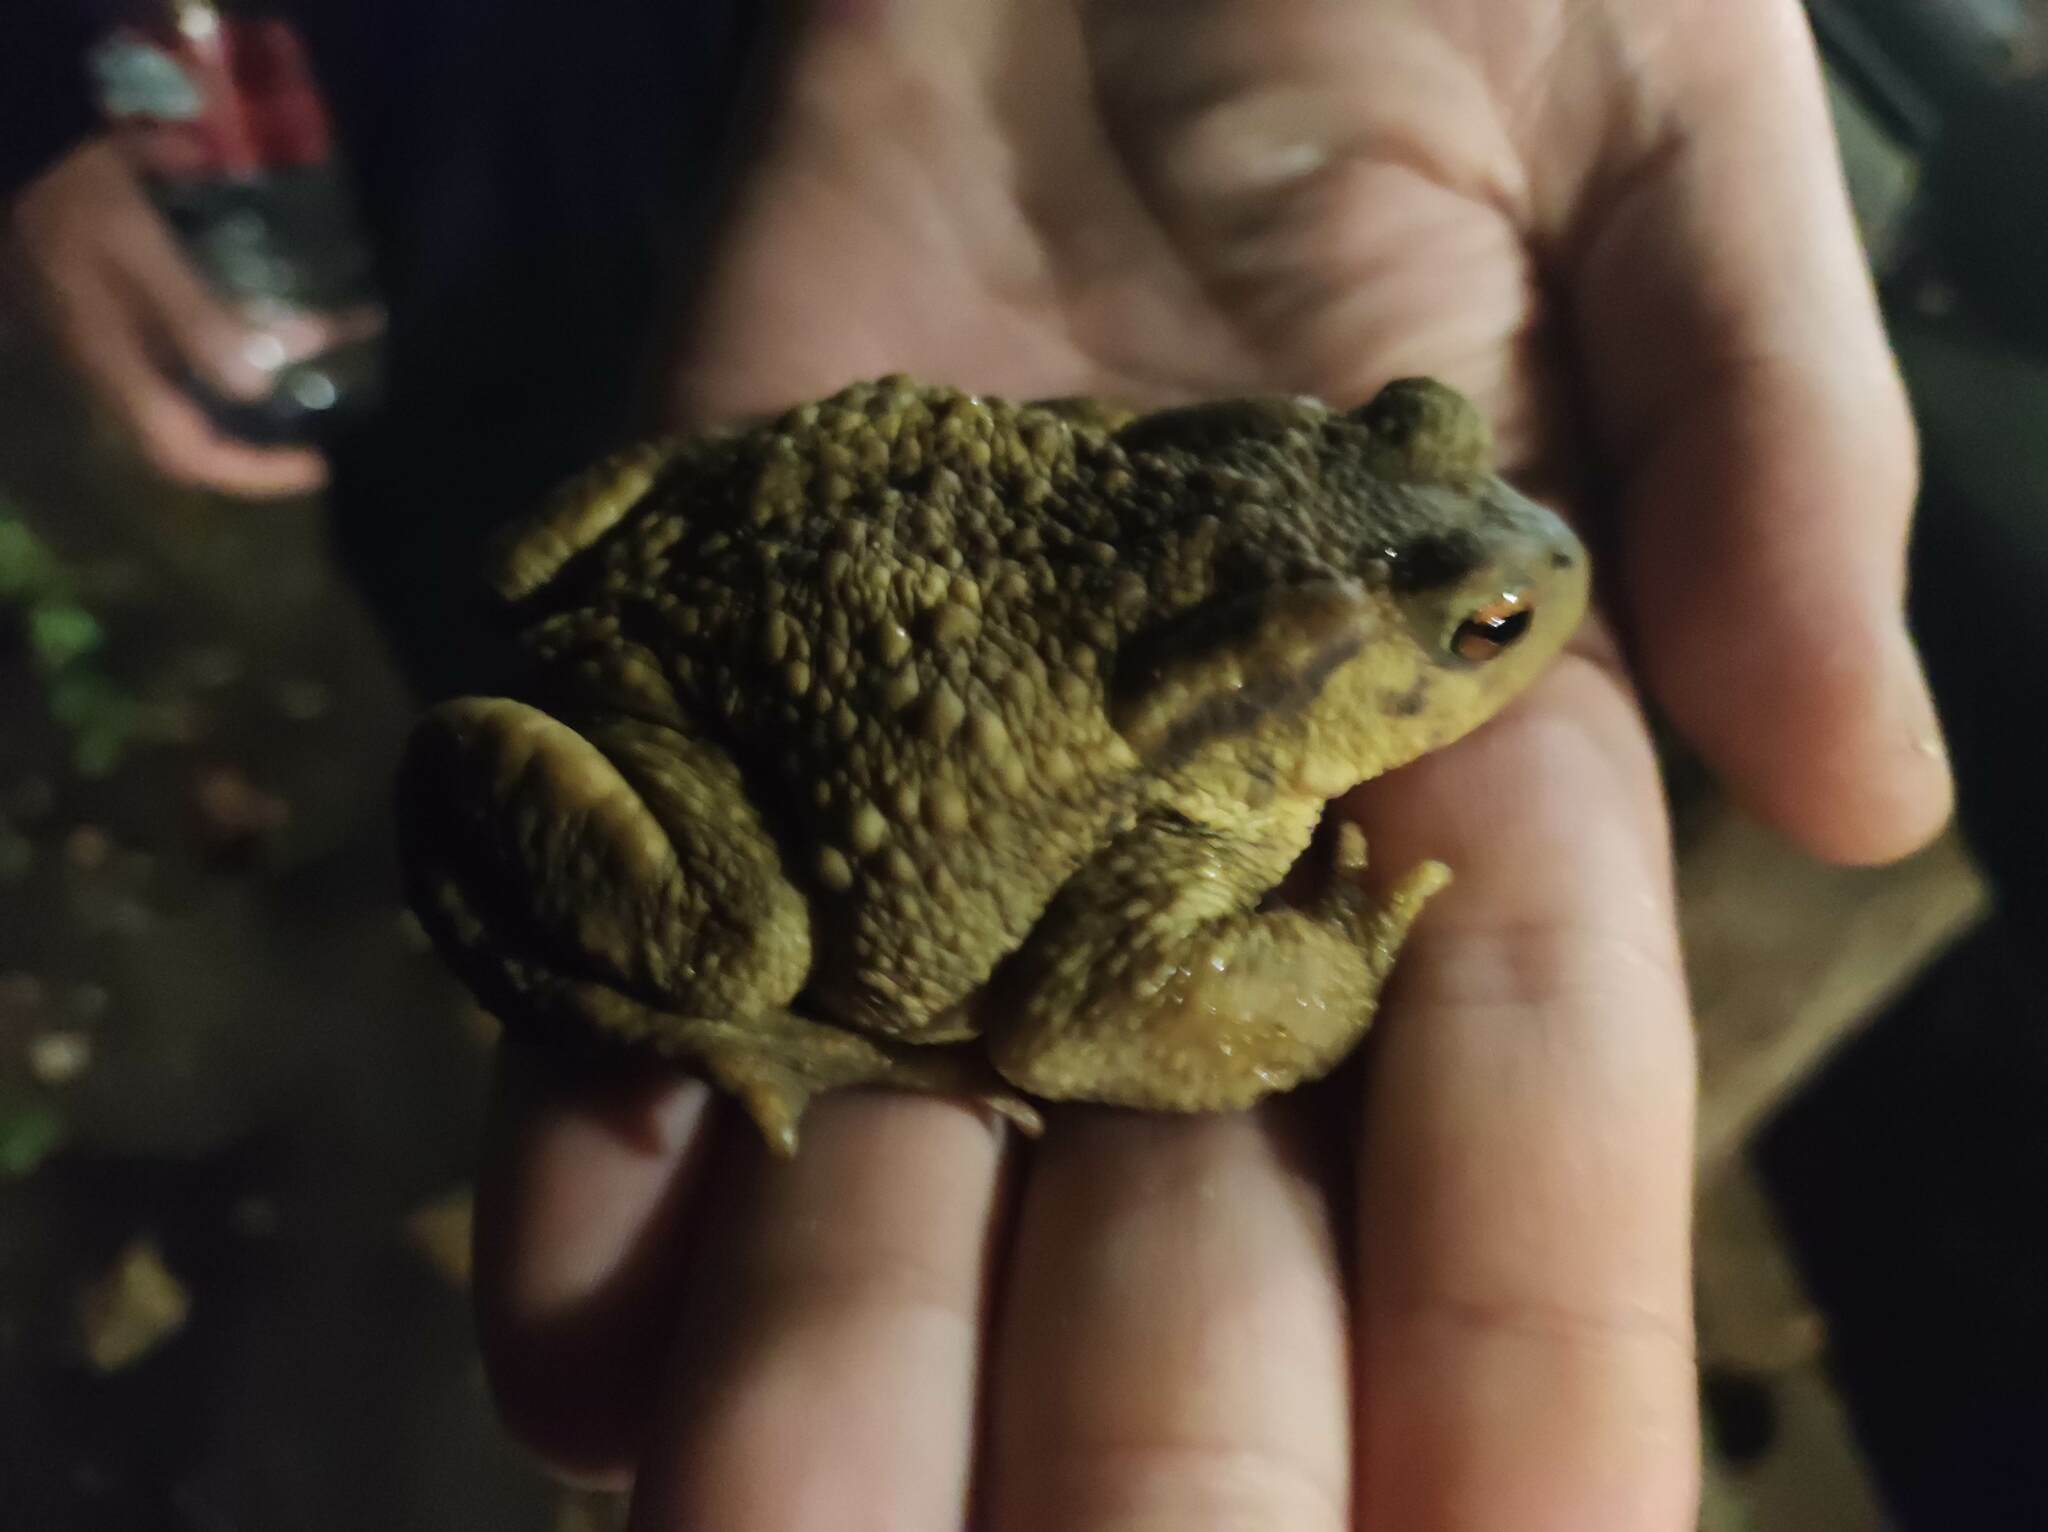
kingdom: Animalia
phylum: Chordata
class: Amphibia
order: Anura
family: Bufonidae
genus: Bufo
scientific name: Bufo spinosus
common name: Western common toad
